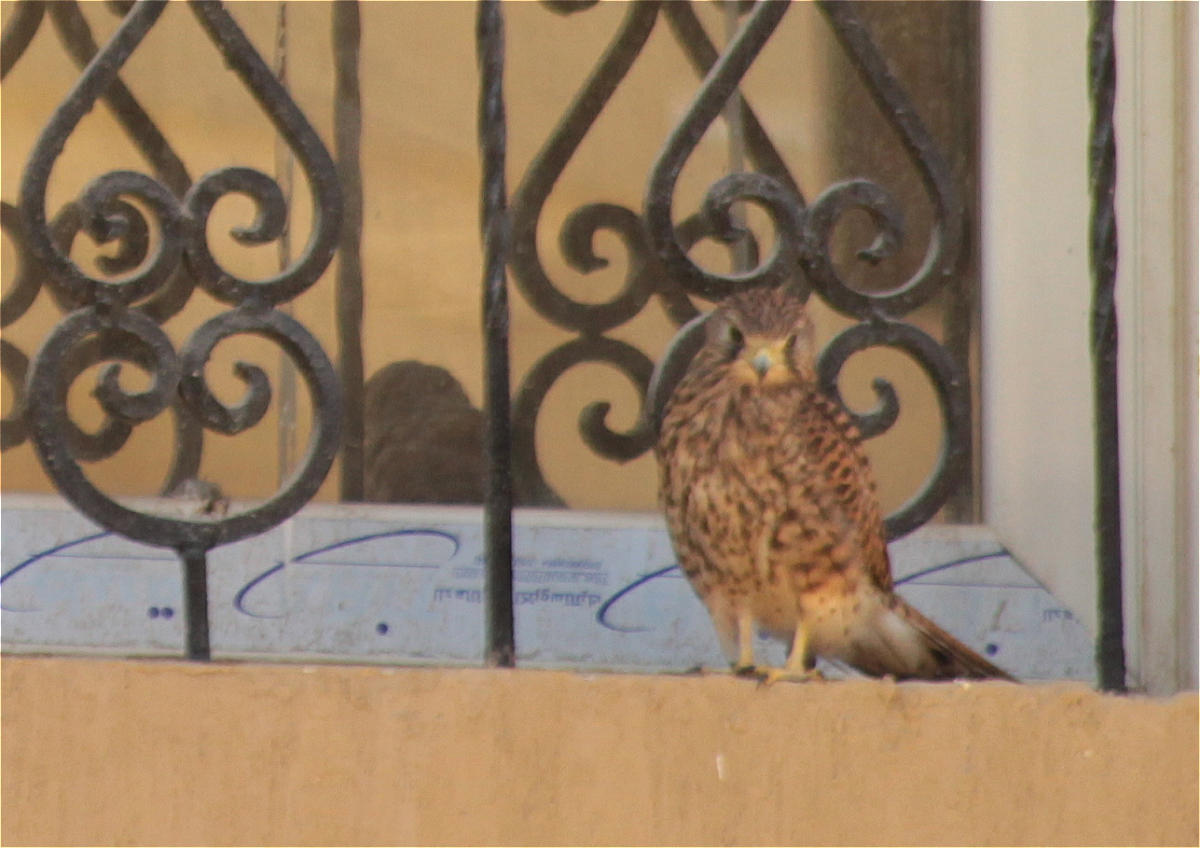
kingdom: Animalia
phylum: Chordata
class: Aves
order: Falconiformes
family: Falconidae
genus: Falco
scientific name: Falco tinnunculus
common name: Common kestrel
